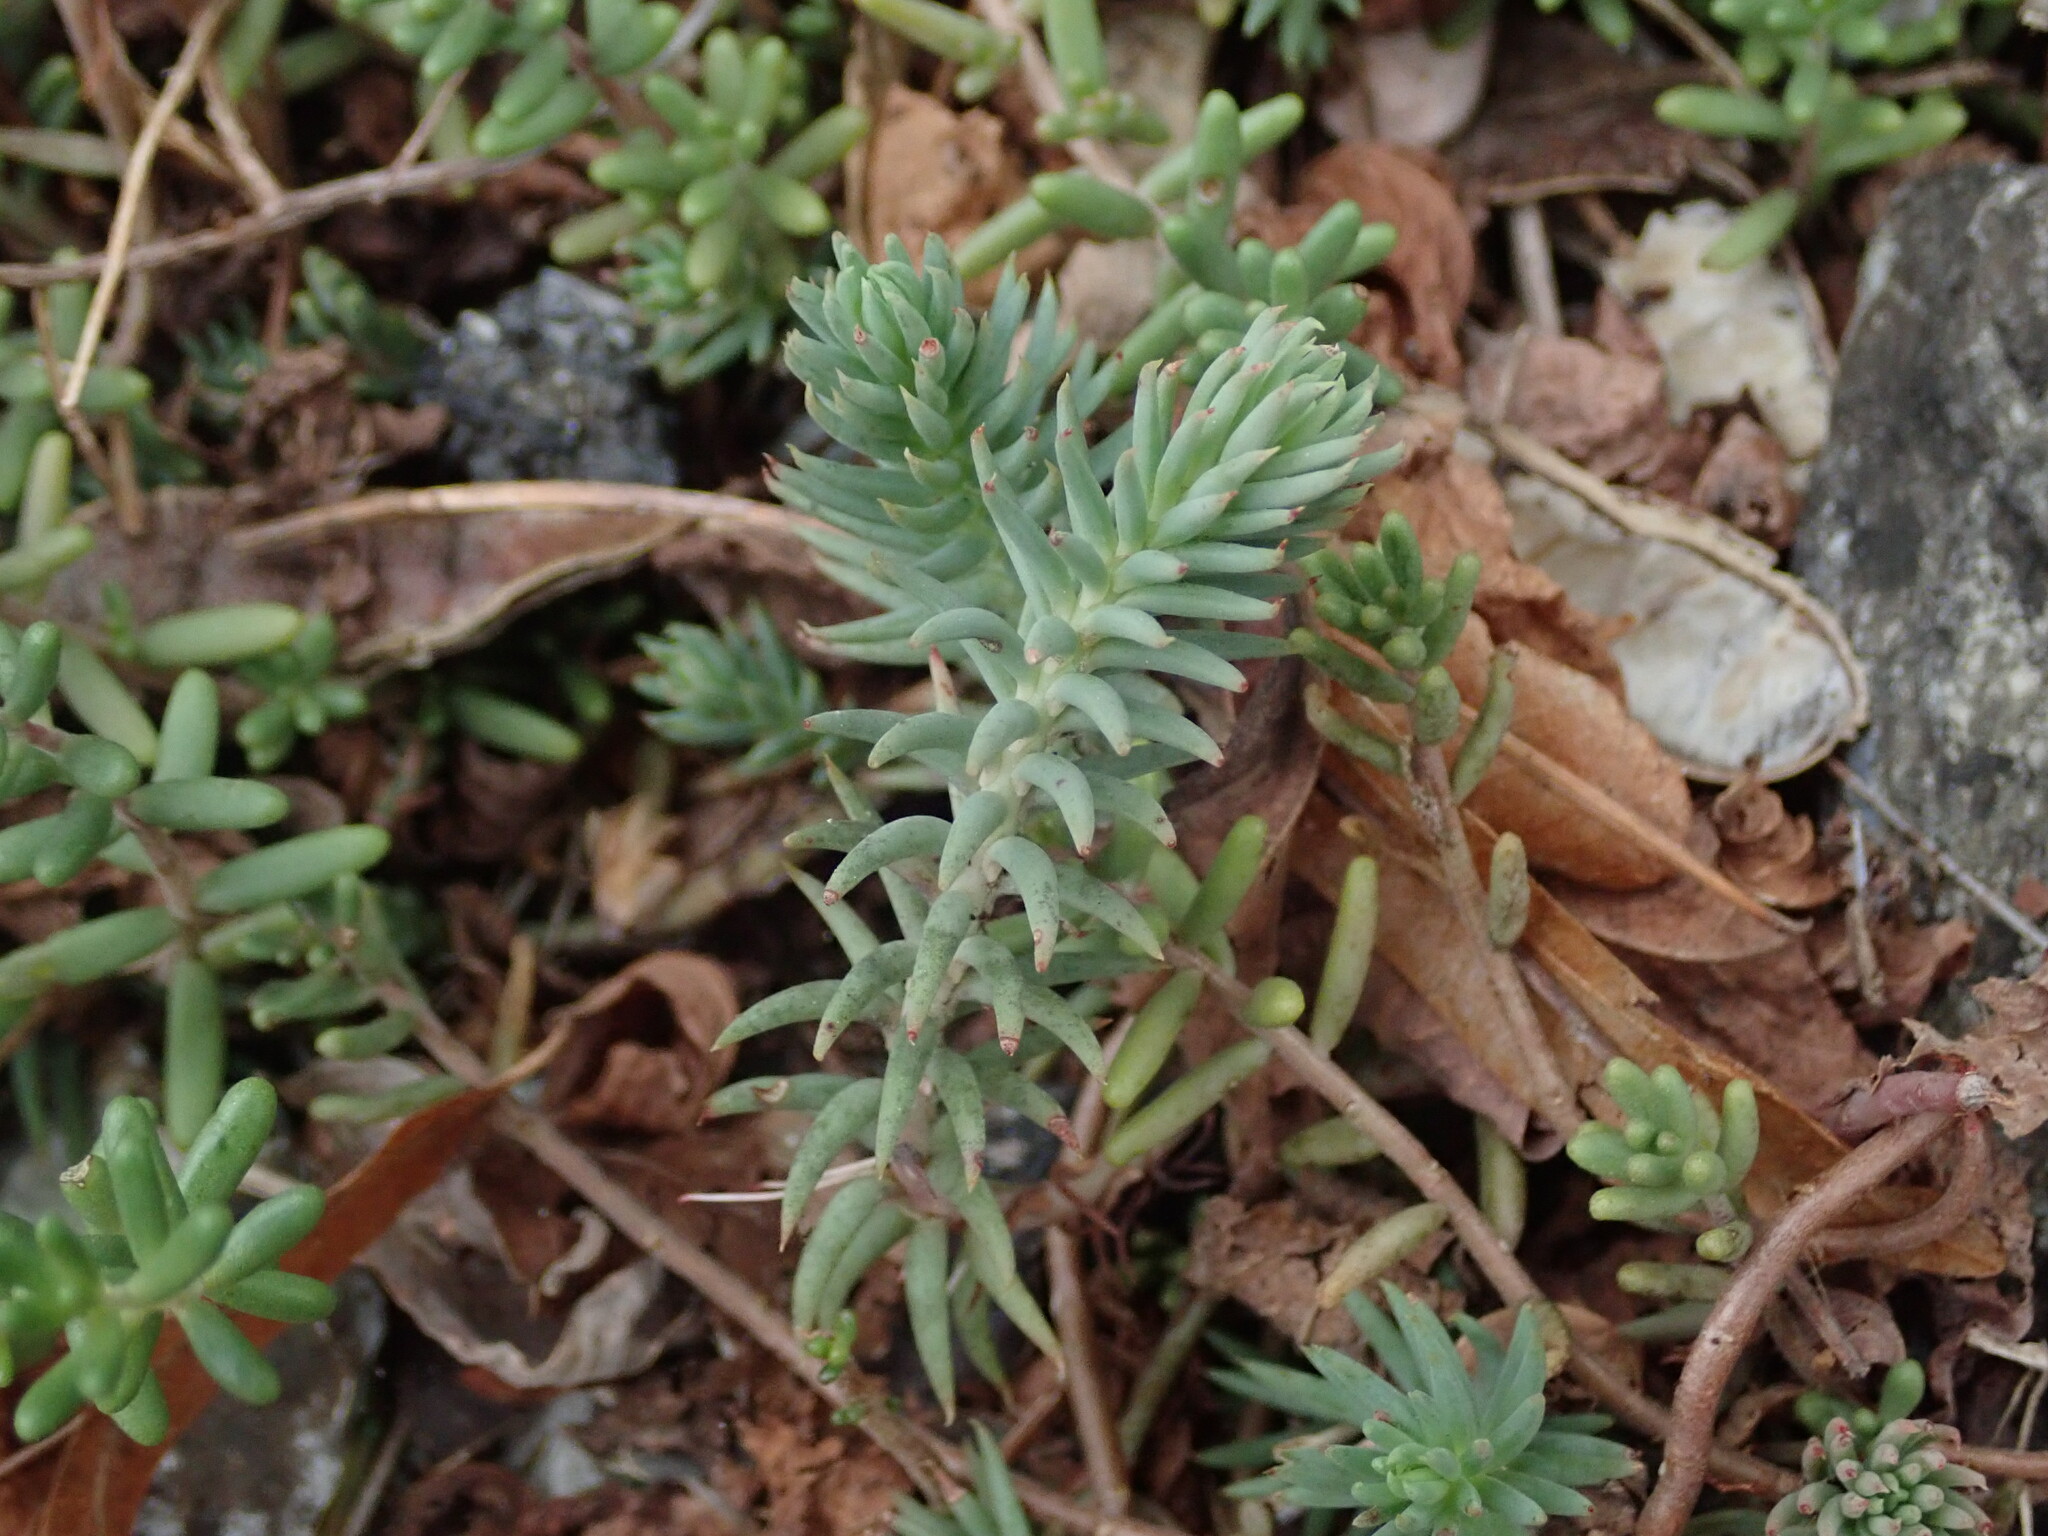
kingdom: Plantae
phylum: Tracheophyta
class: Magnoliopsida
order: Saxifragales
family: Crassulaceae
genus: Petrosedum
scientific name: Petrosedum rupestre
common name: Jenny's stonecrop
